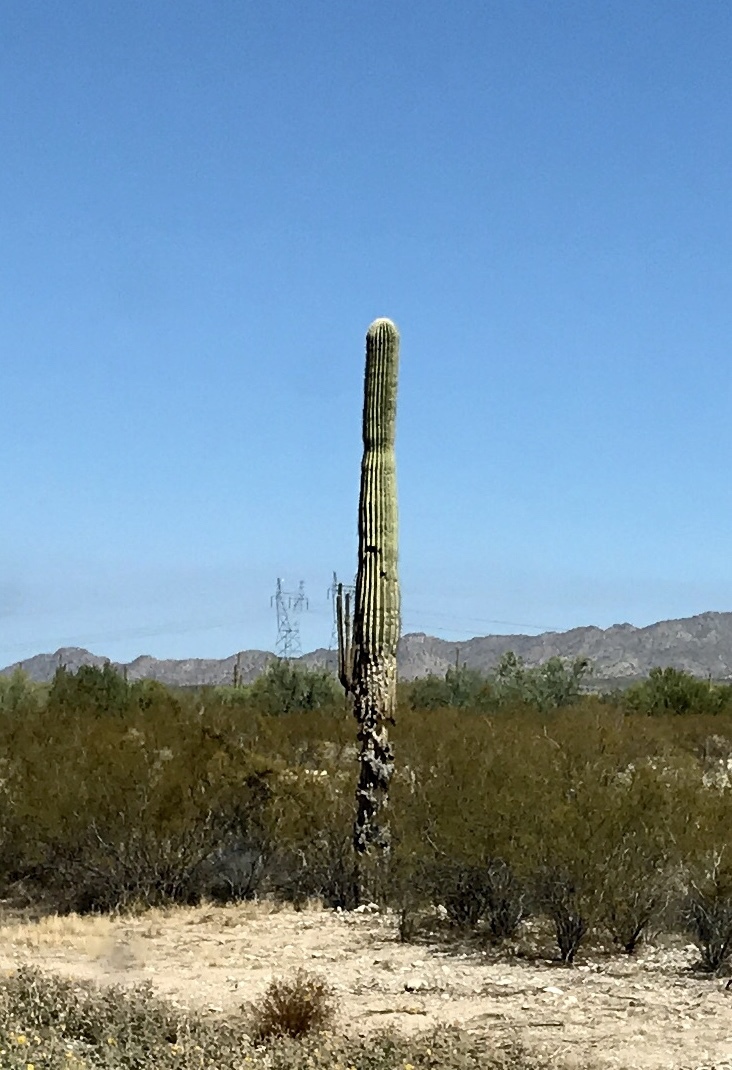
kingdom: Plantae
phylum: Tracheophyta
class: Magnoliopsida
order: Caryophyllales
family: Cactaceae
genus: Carnegiea
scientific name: Carnegiea gigantea
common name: Saguaro
